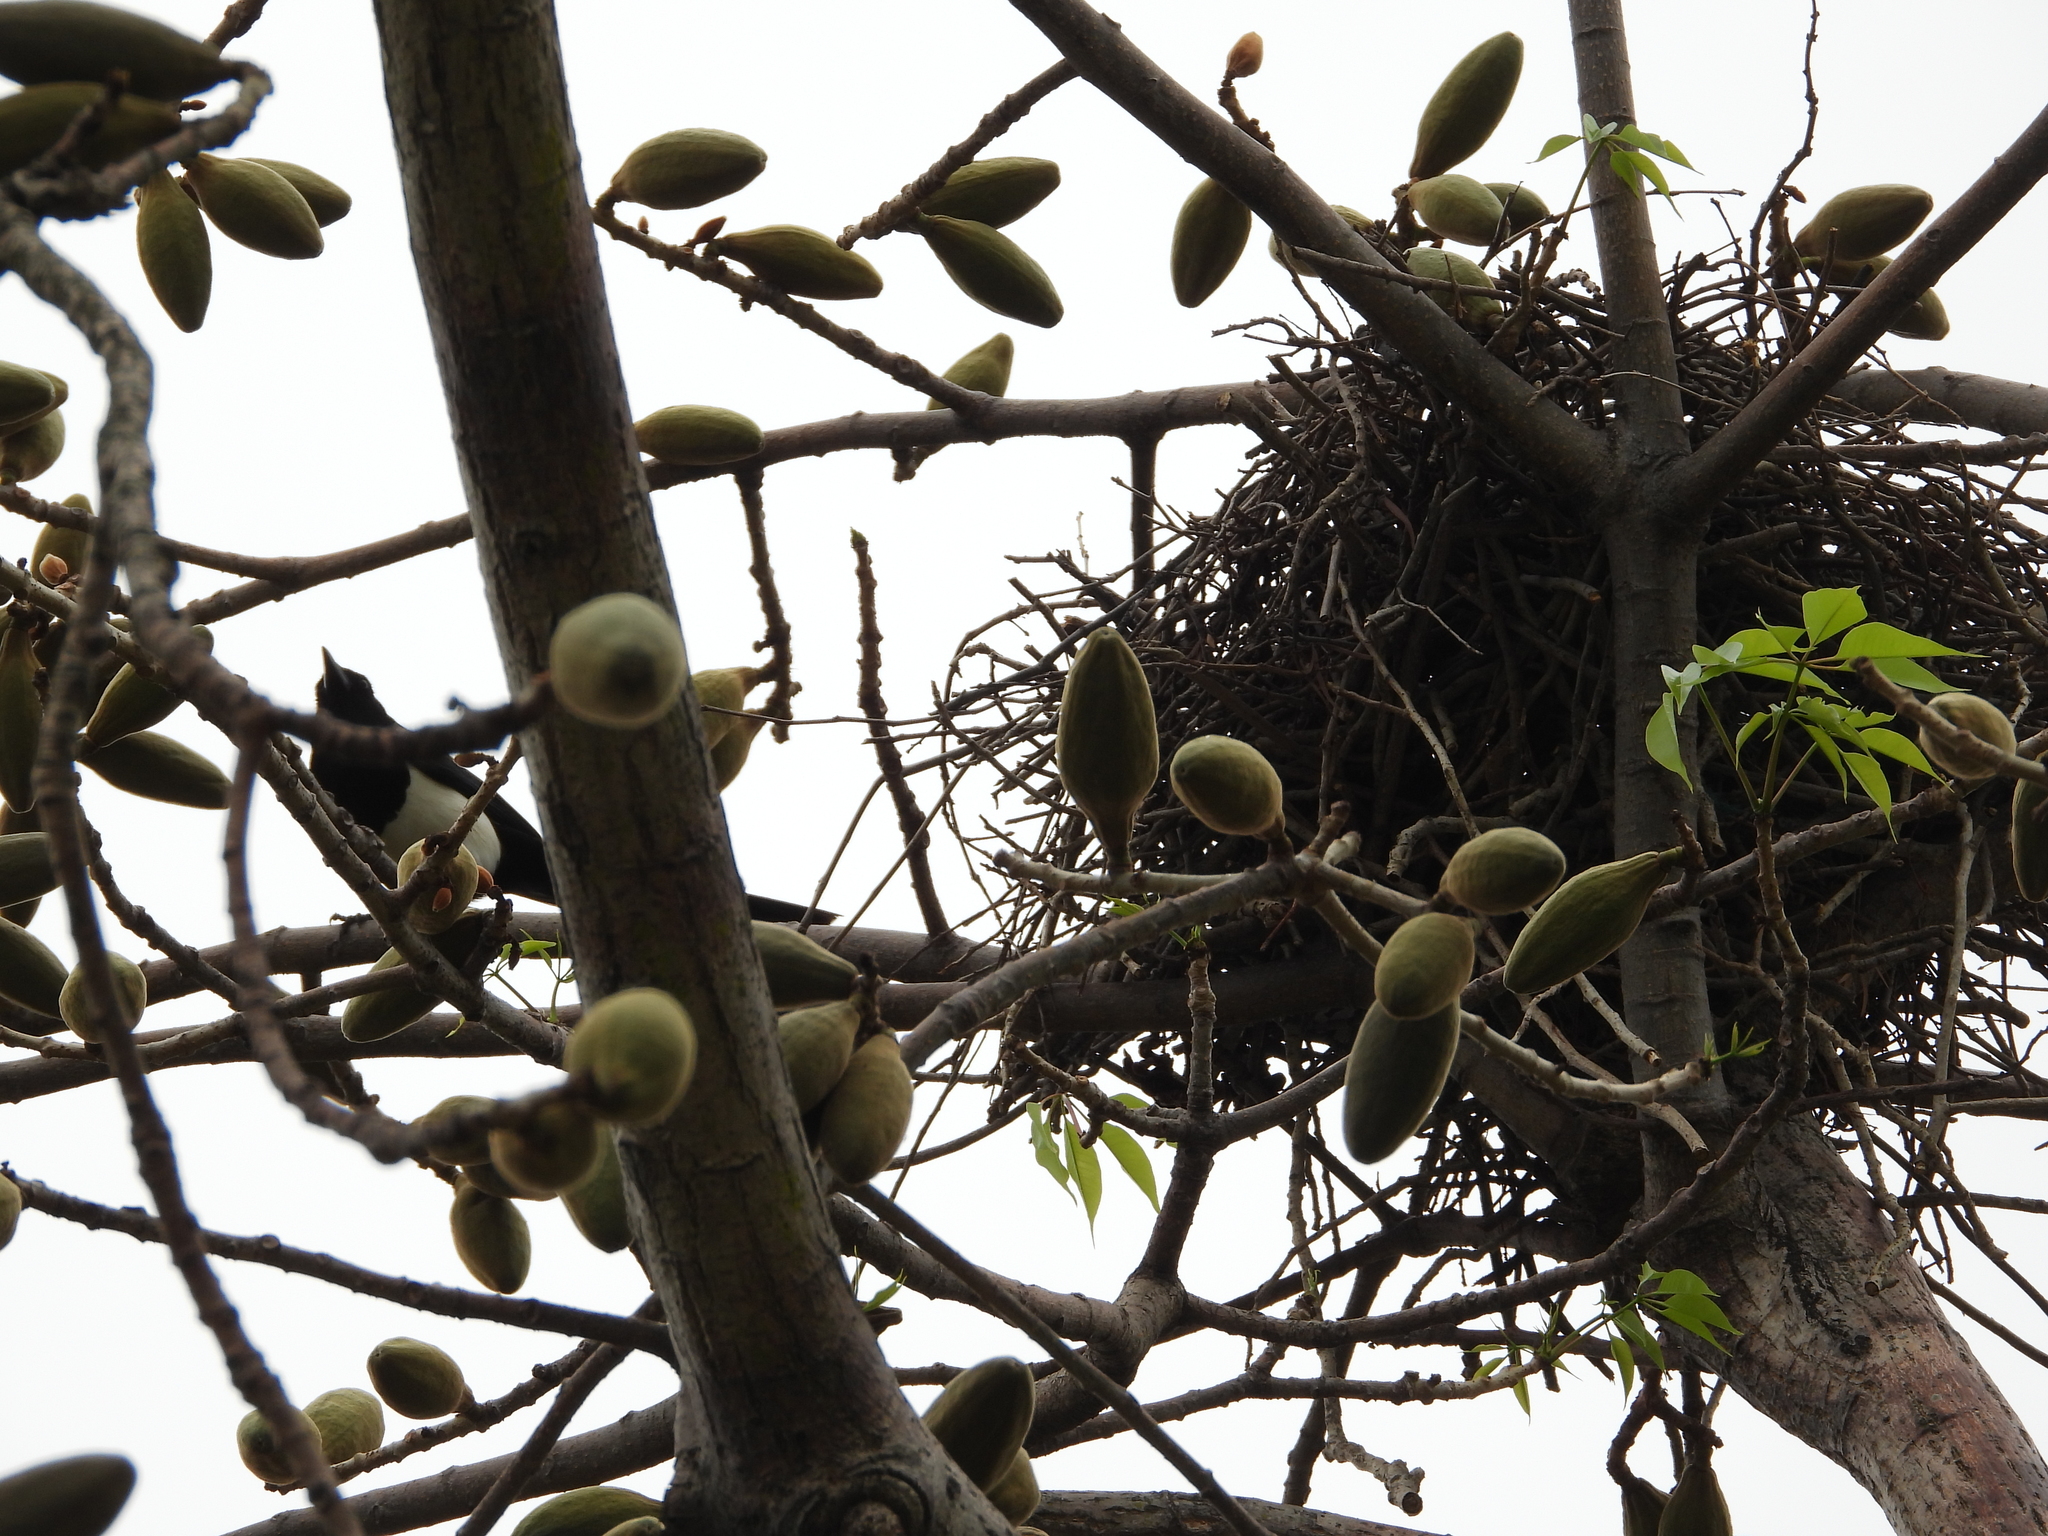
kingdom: Animalia
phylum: Chordata
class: Aves
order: Passeriformes
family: Corvidae
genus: Pica
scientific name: Pica serica
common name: Oriental magpie
